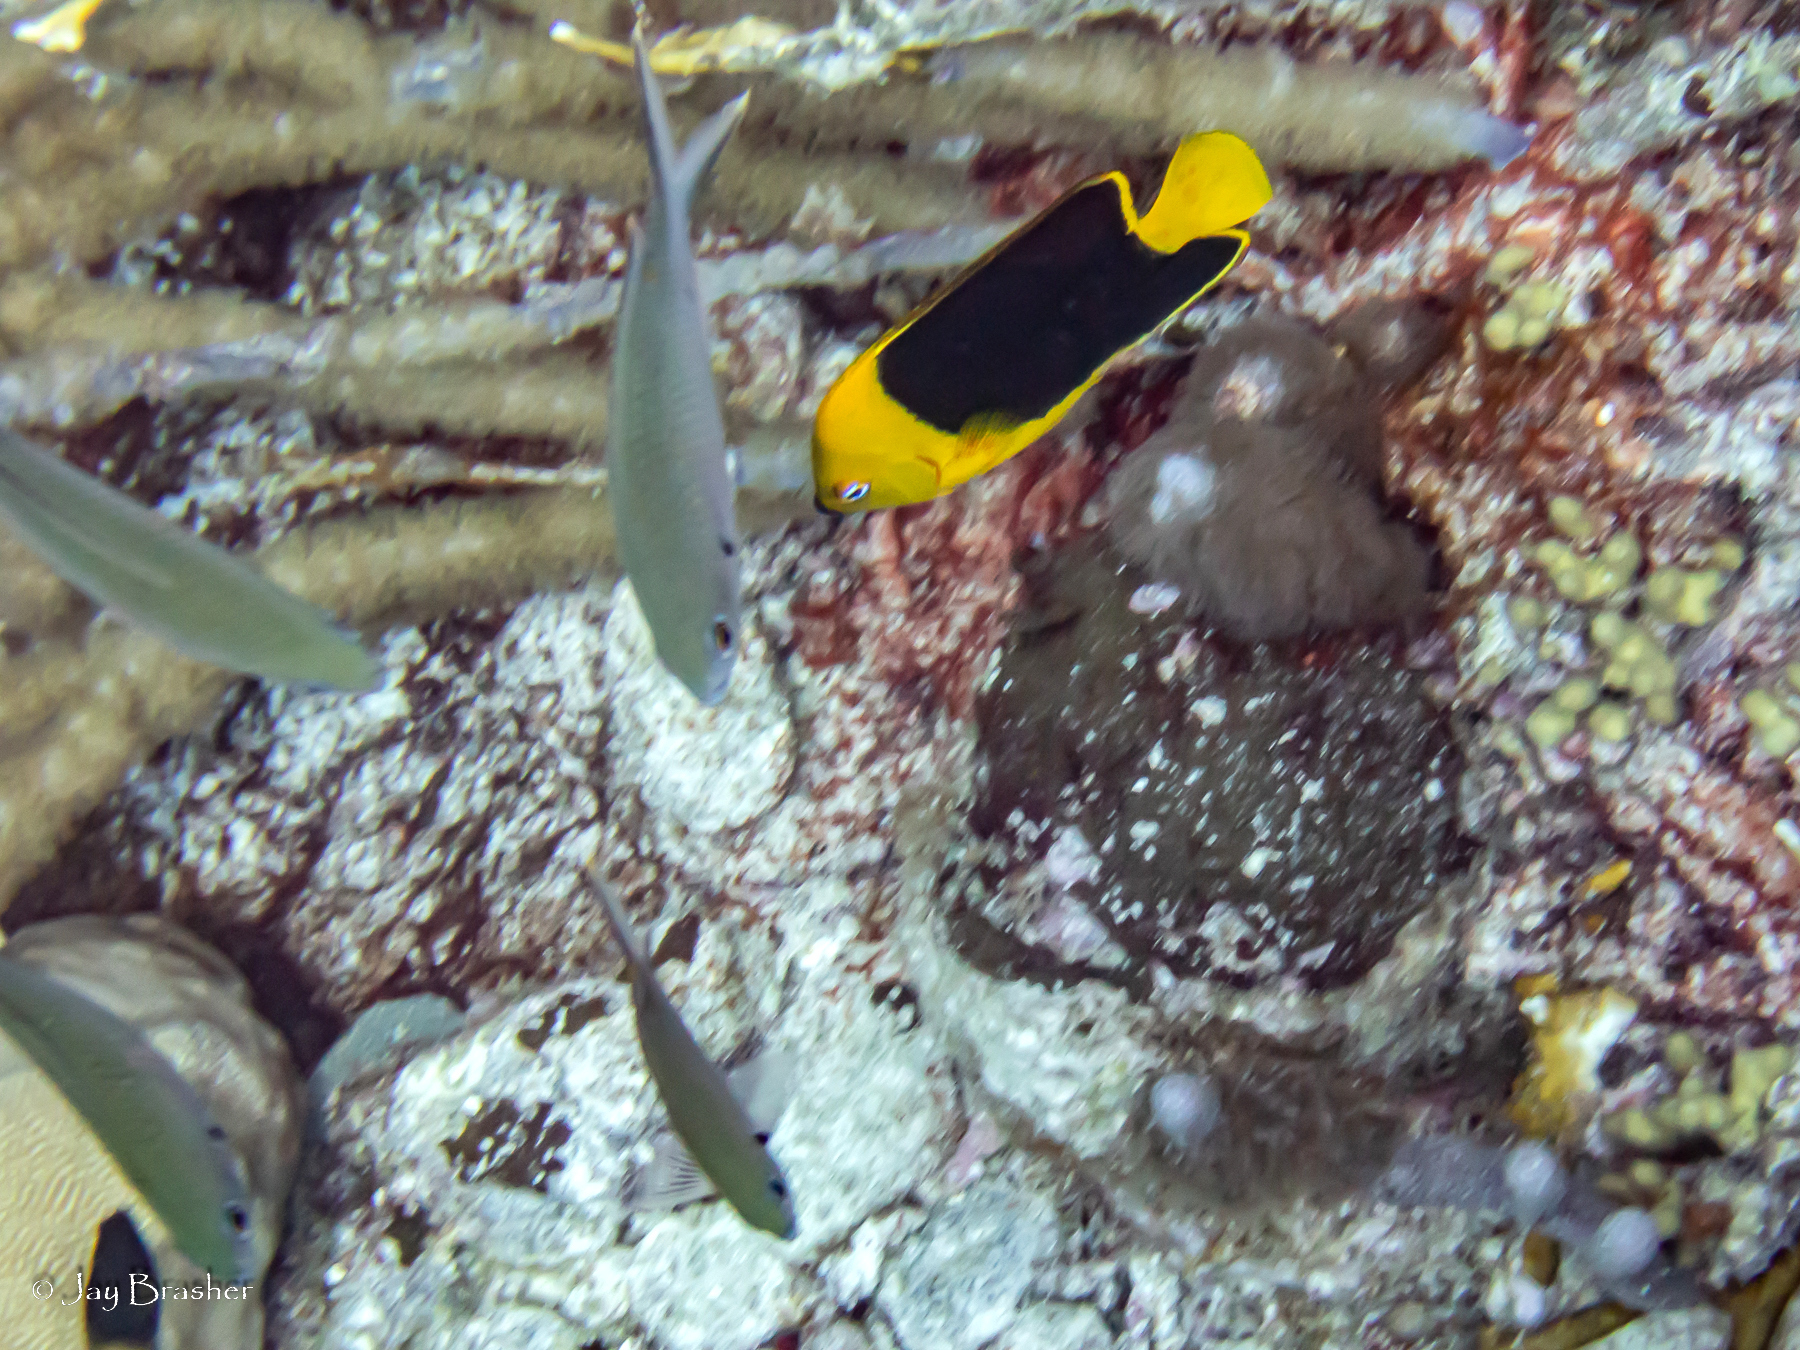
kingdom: Animalia
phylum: Chordata
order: Perciformes
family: Pomacentridae
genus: Chromis
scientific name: Chromis multilineata
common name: Brown chromis
